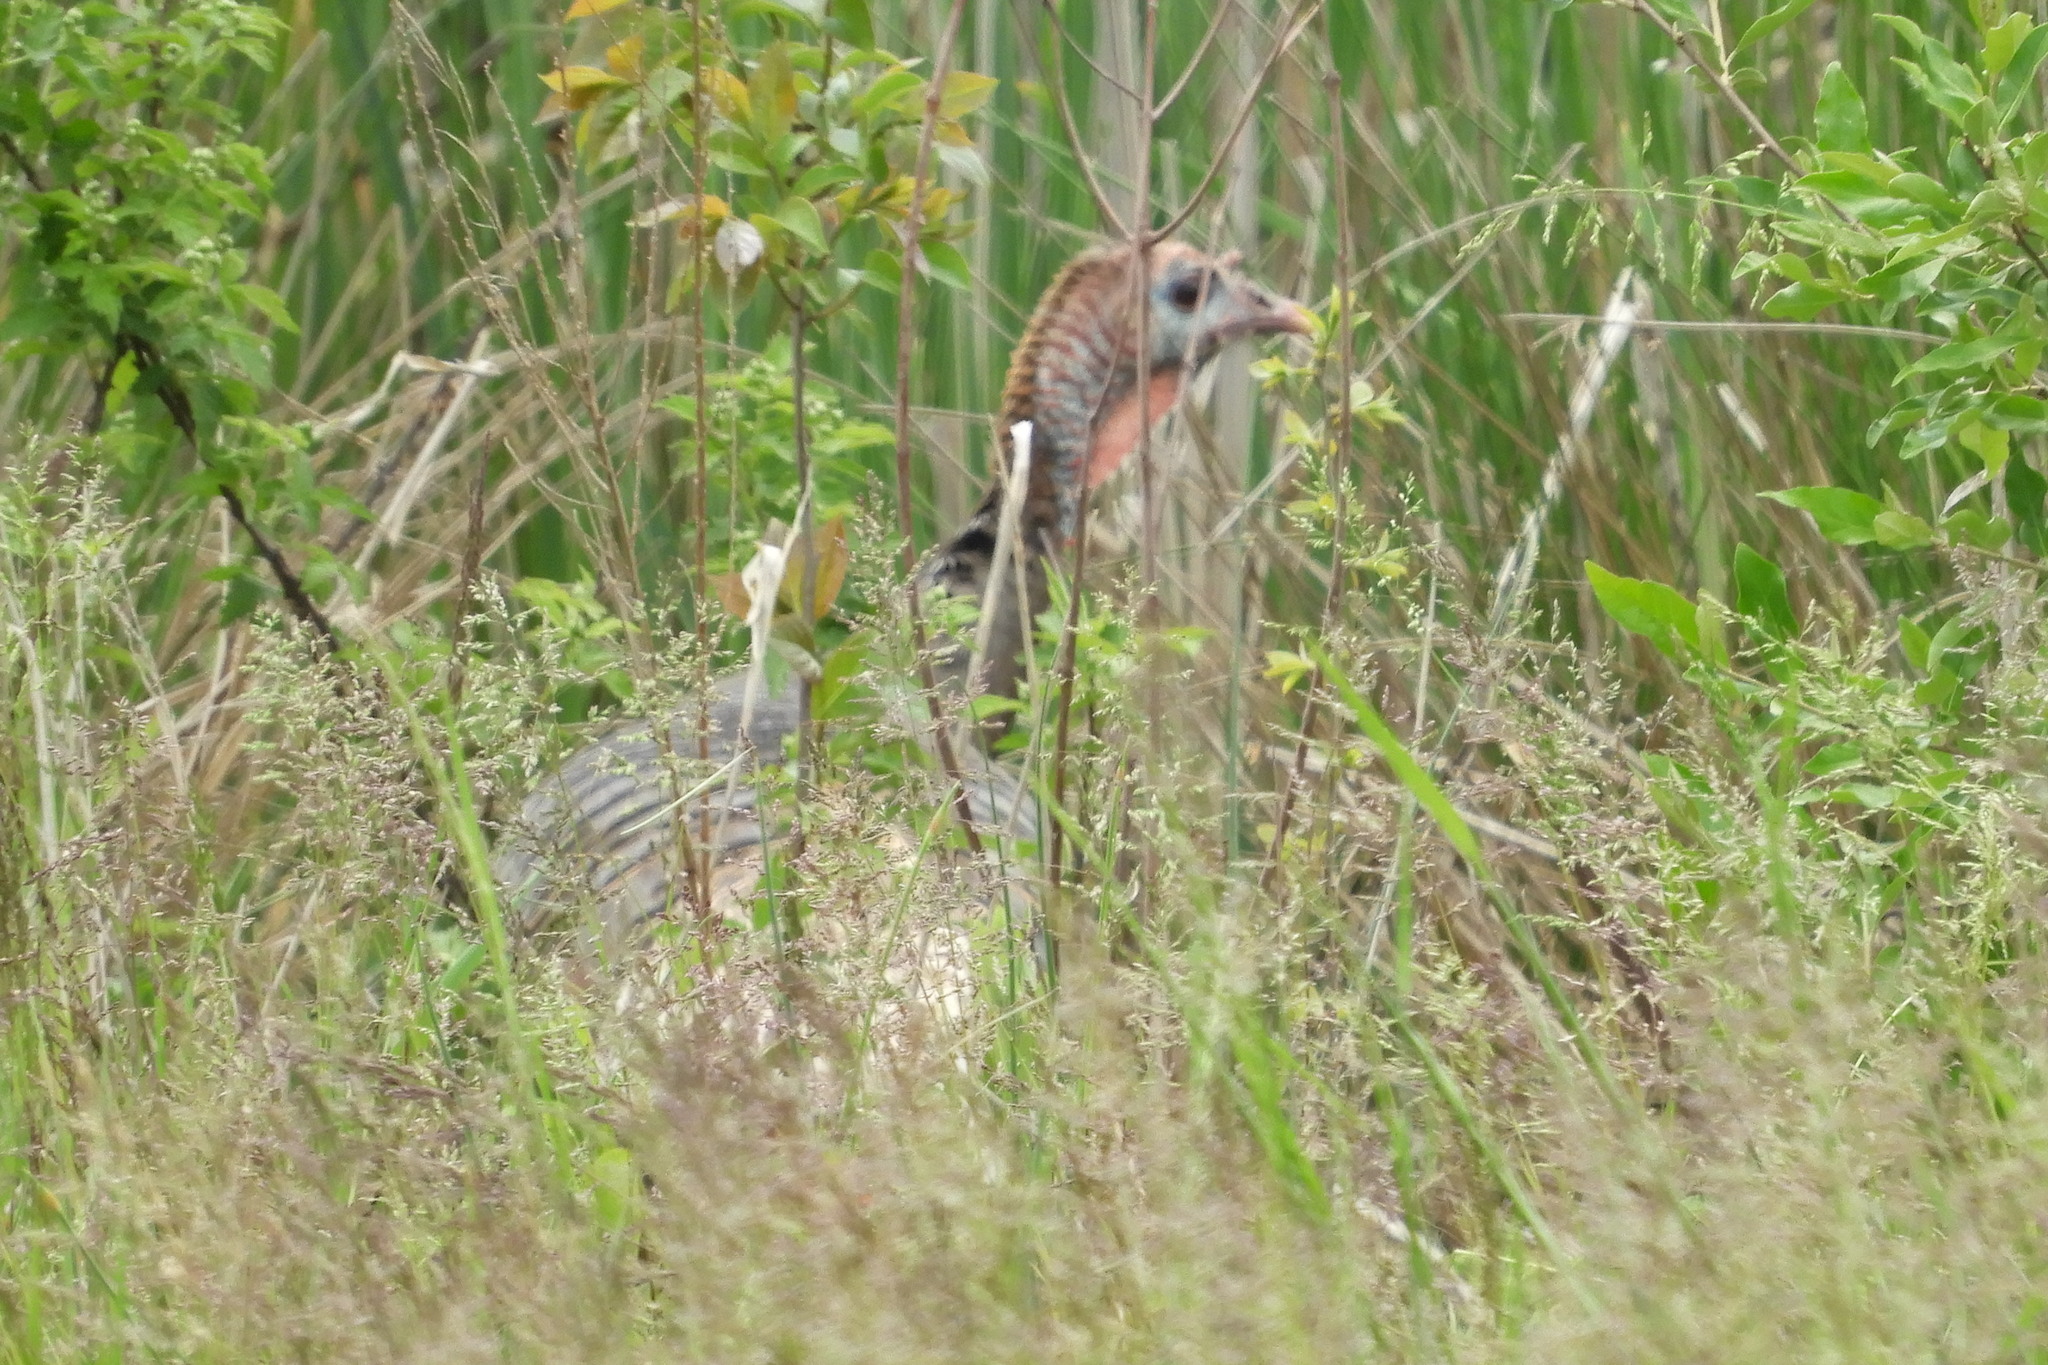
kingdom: Animalia
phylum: Chordata
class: Aves
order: Galliformes
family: Phasianidae
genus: Meleagris
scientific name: Meleagris gallopavo
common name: Wild turkey
